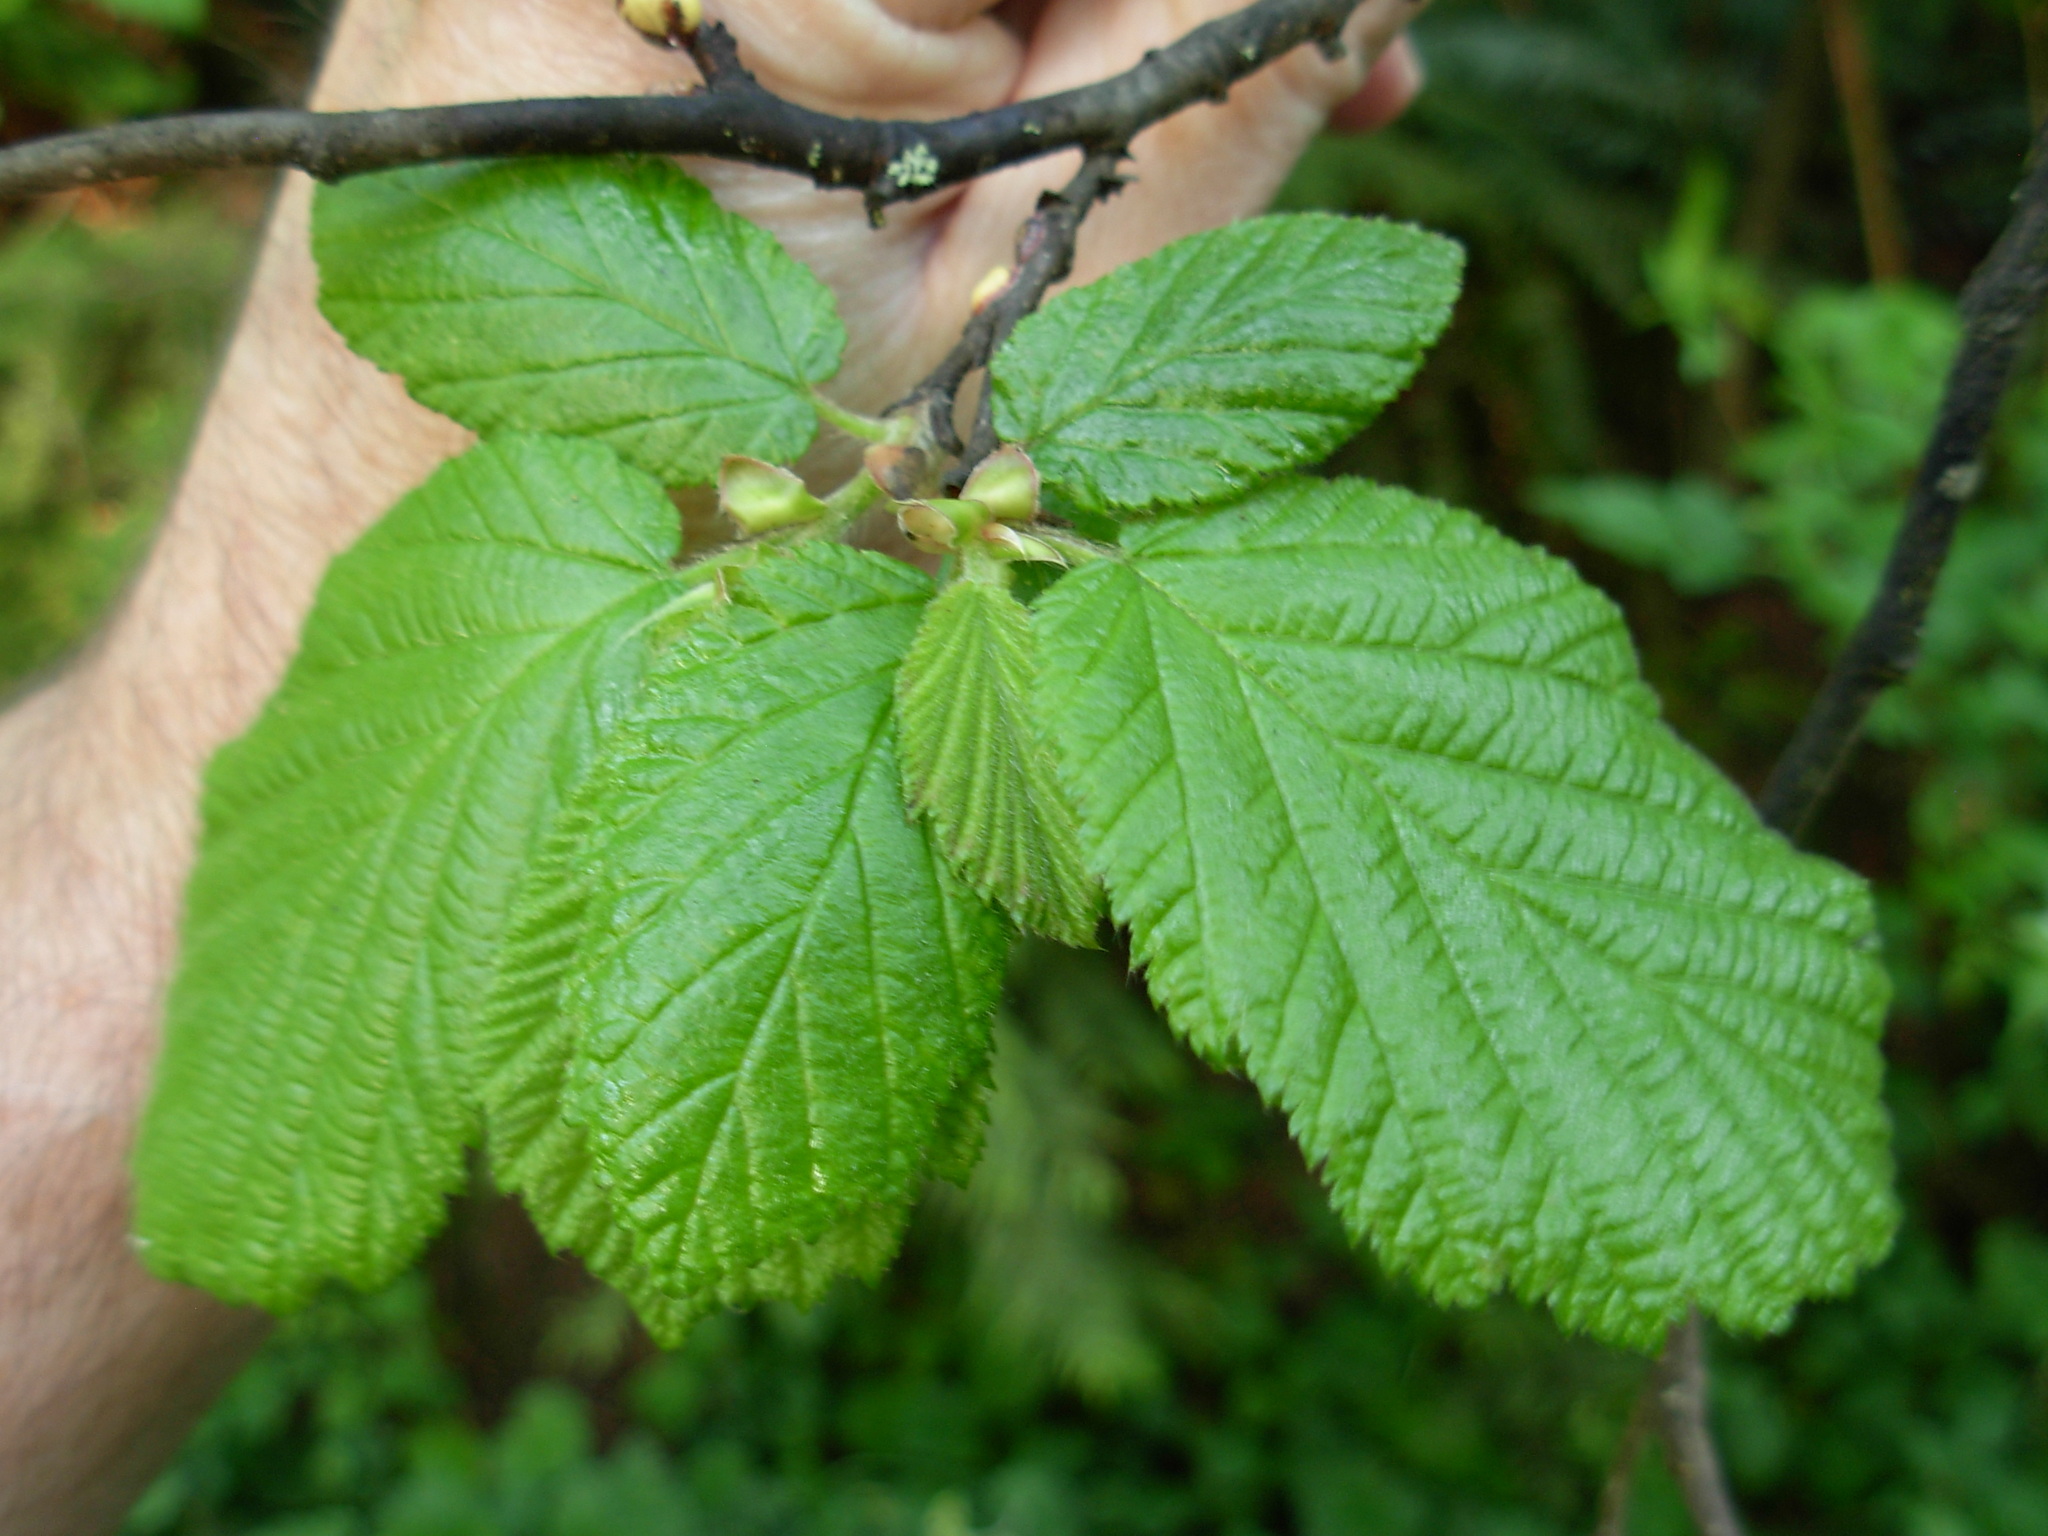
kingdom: Plantae
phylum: Tracheophyta
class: Magnoliopsida
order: Fagales
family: Betulaceae
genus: Corylus
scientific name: Corylus cornuta
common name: Beaked hazel
